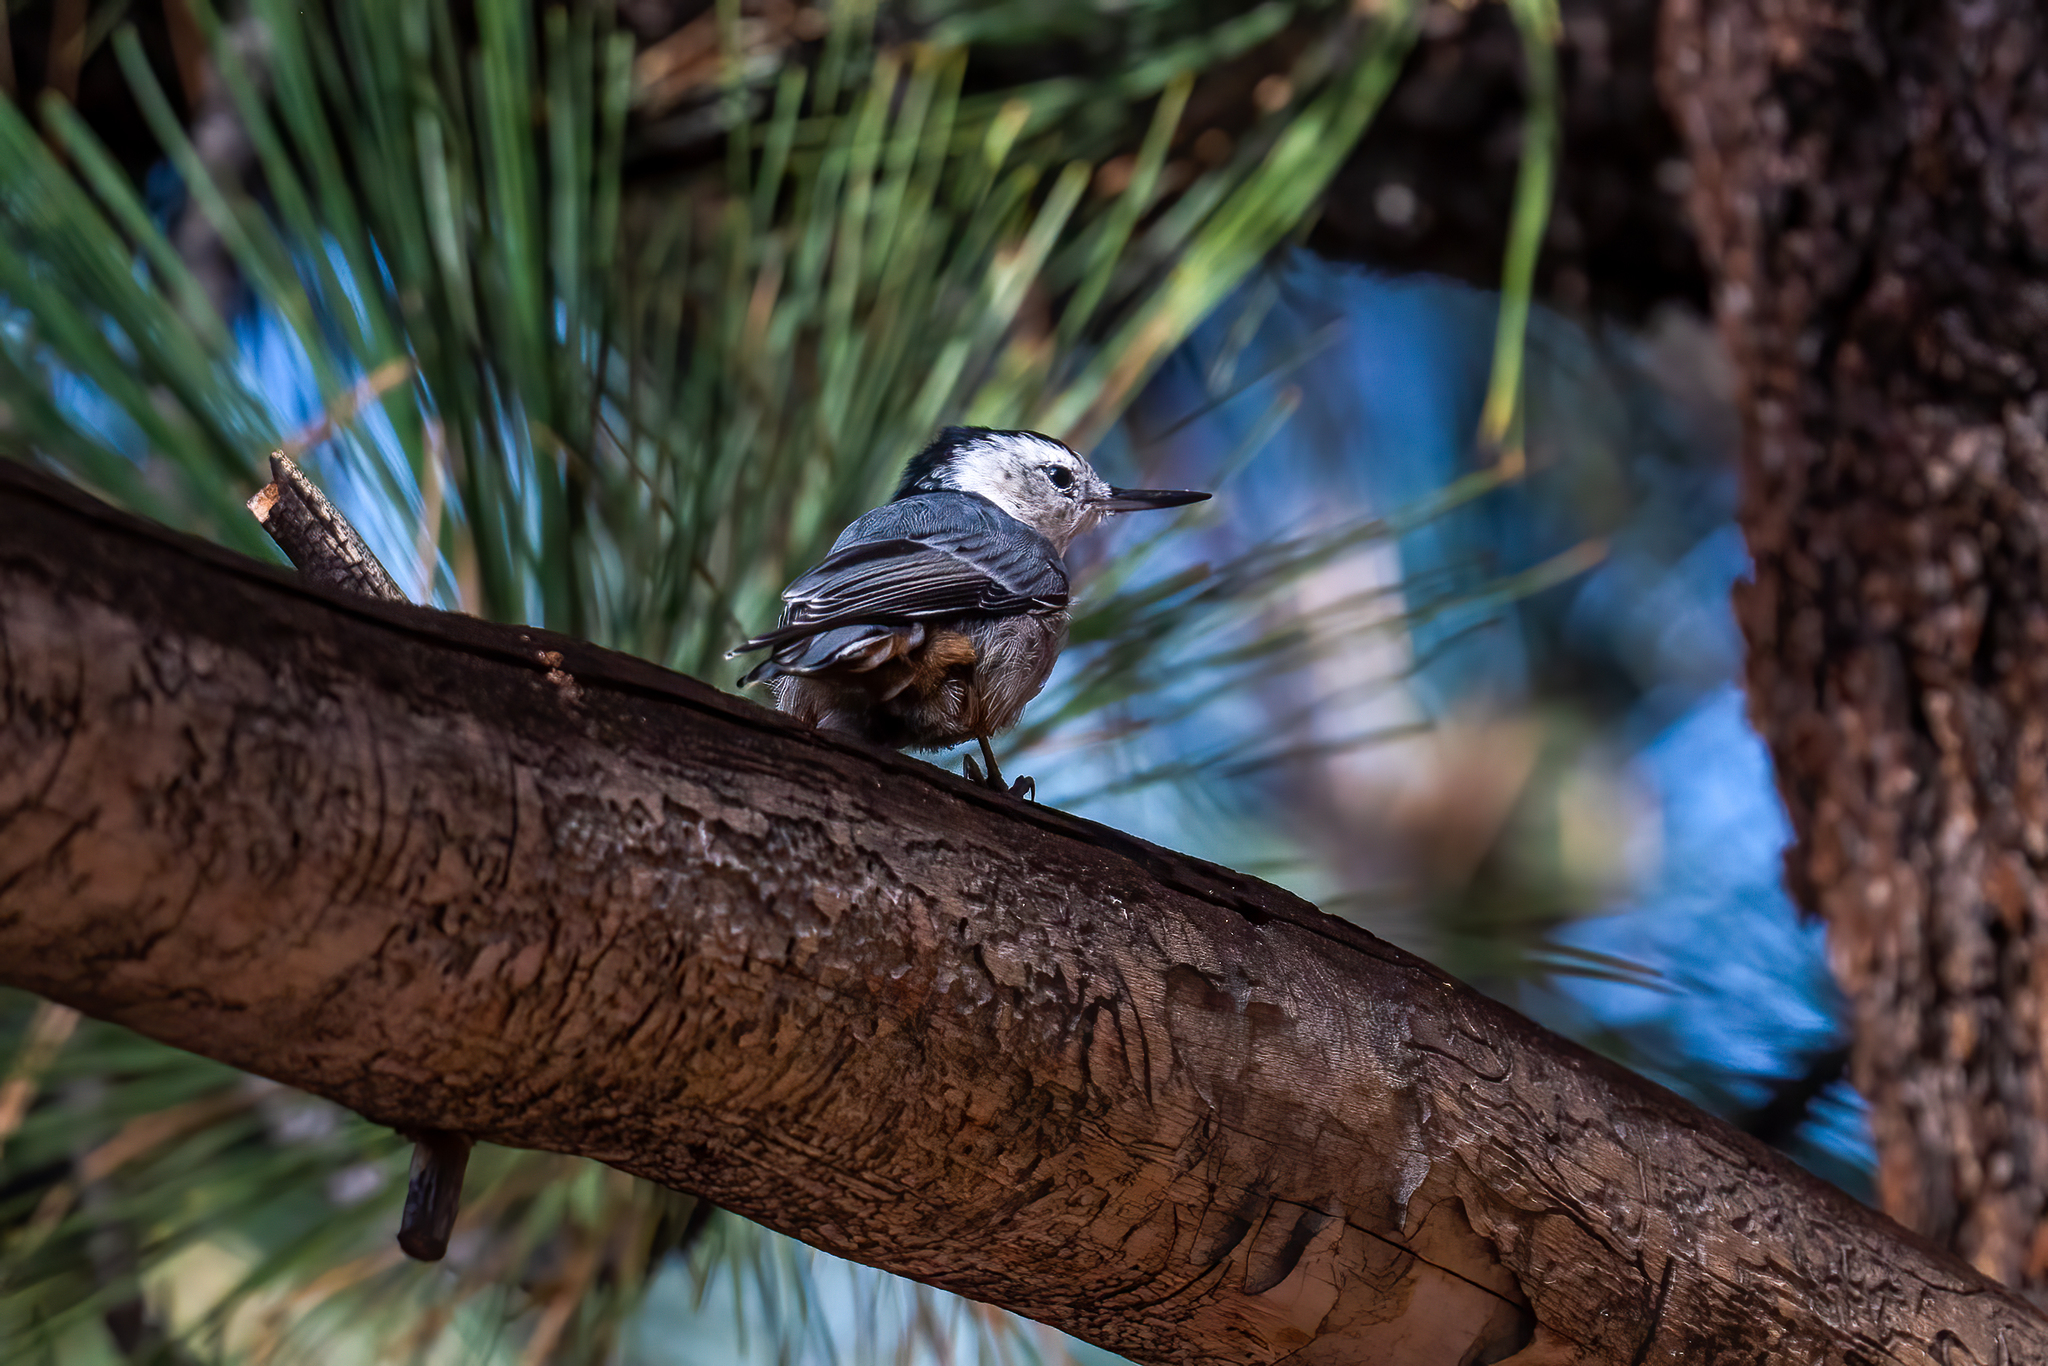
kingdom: Animalia
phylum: Chordata
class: Aves
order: Passeriformes
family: Sittidae
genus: Sitta
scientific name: Sitta carolinensis
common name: White-breasted nuthatch
